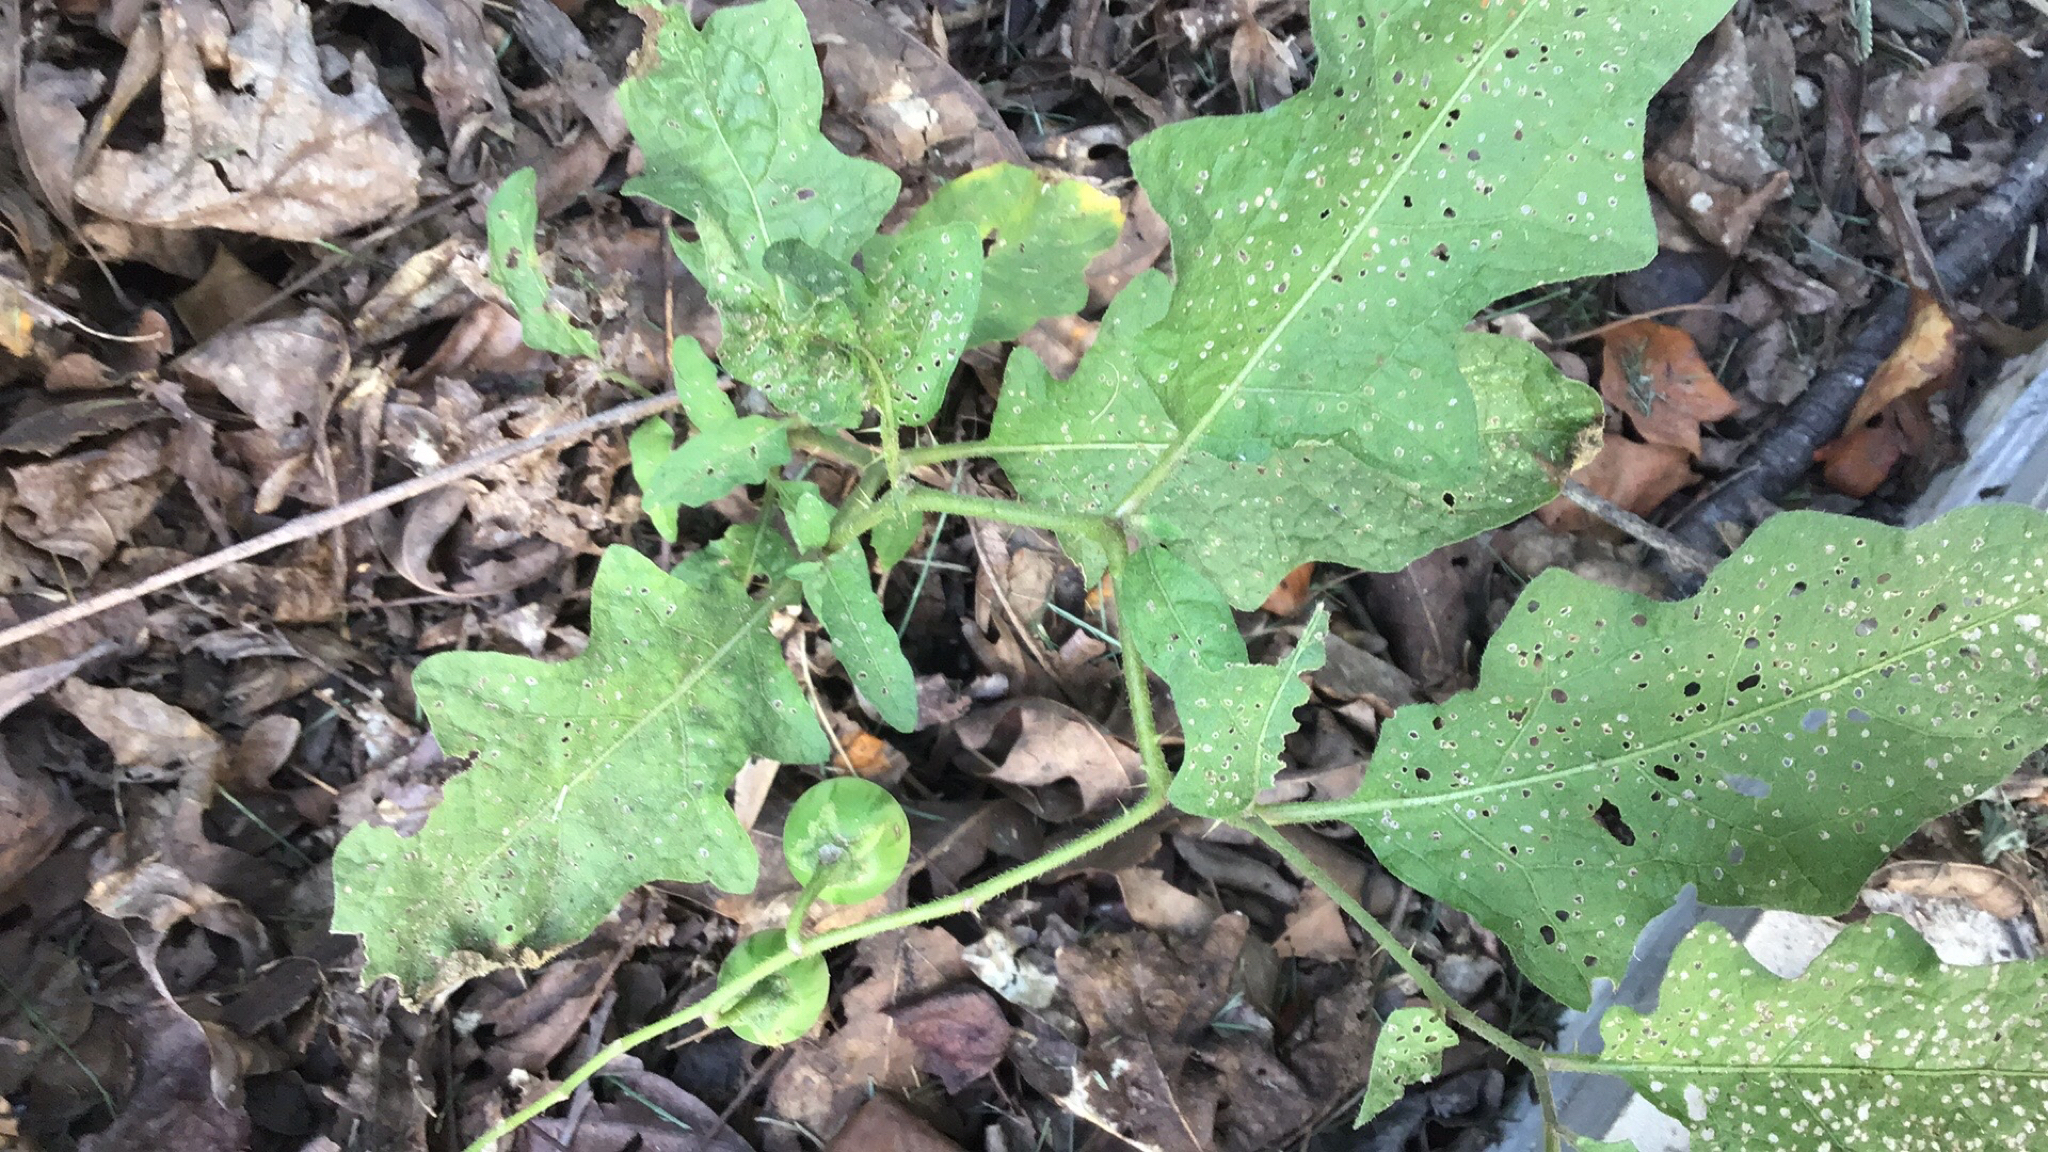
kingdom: Plantae
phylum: Tracheophyta
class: Magnoliopsida
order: Solanales
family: Solanaceae
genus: Solanum
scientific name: Solanum carolinense
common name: Horse-nettle
